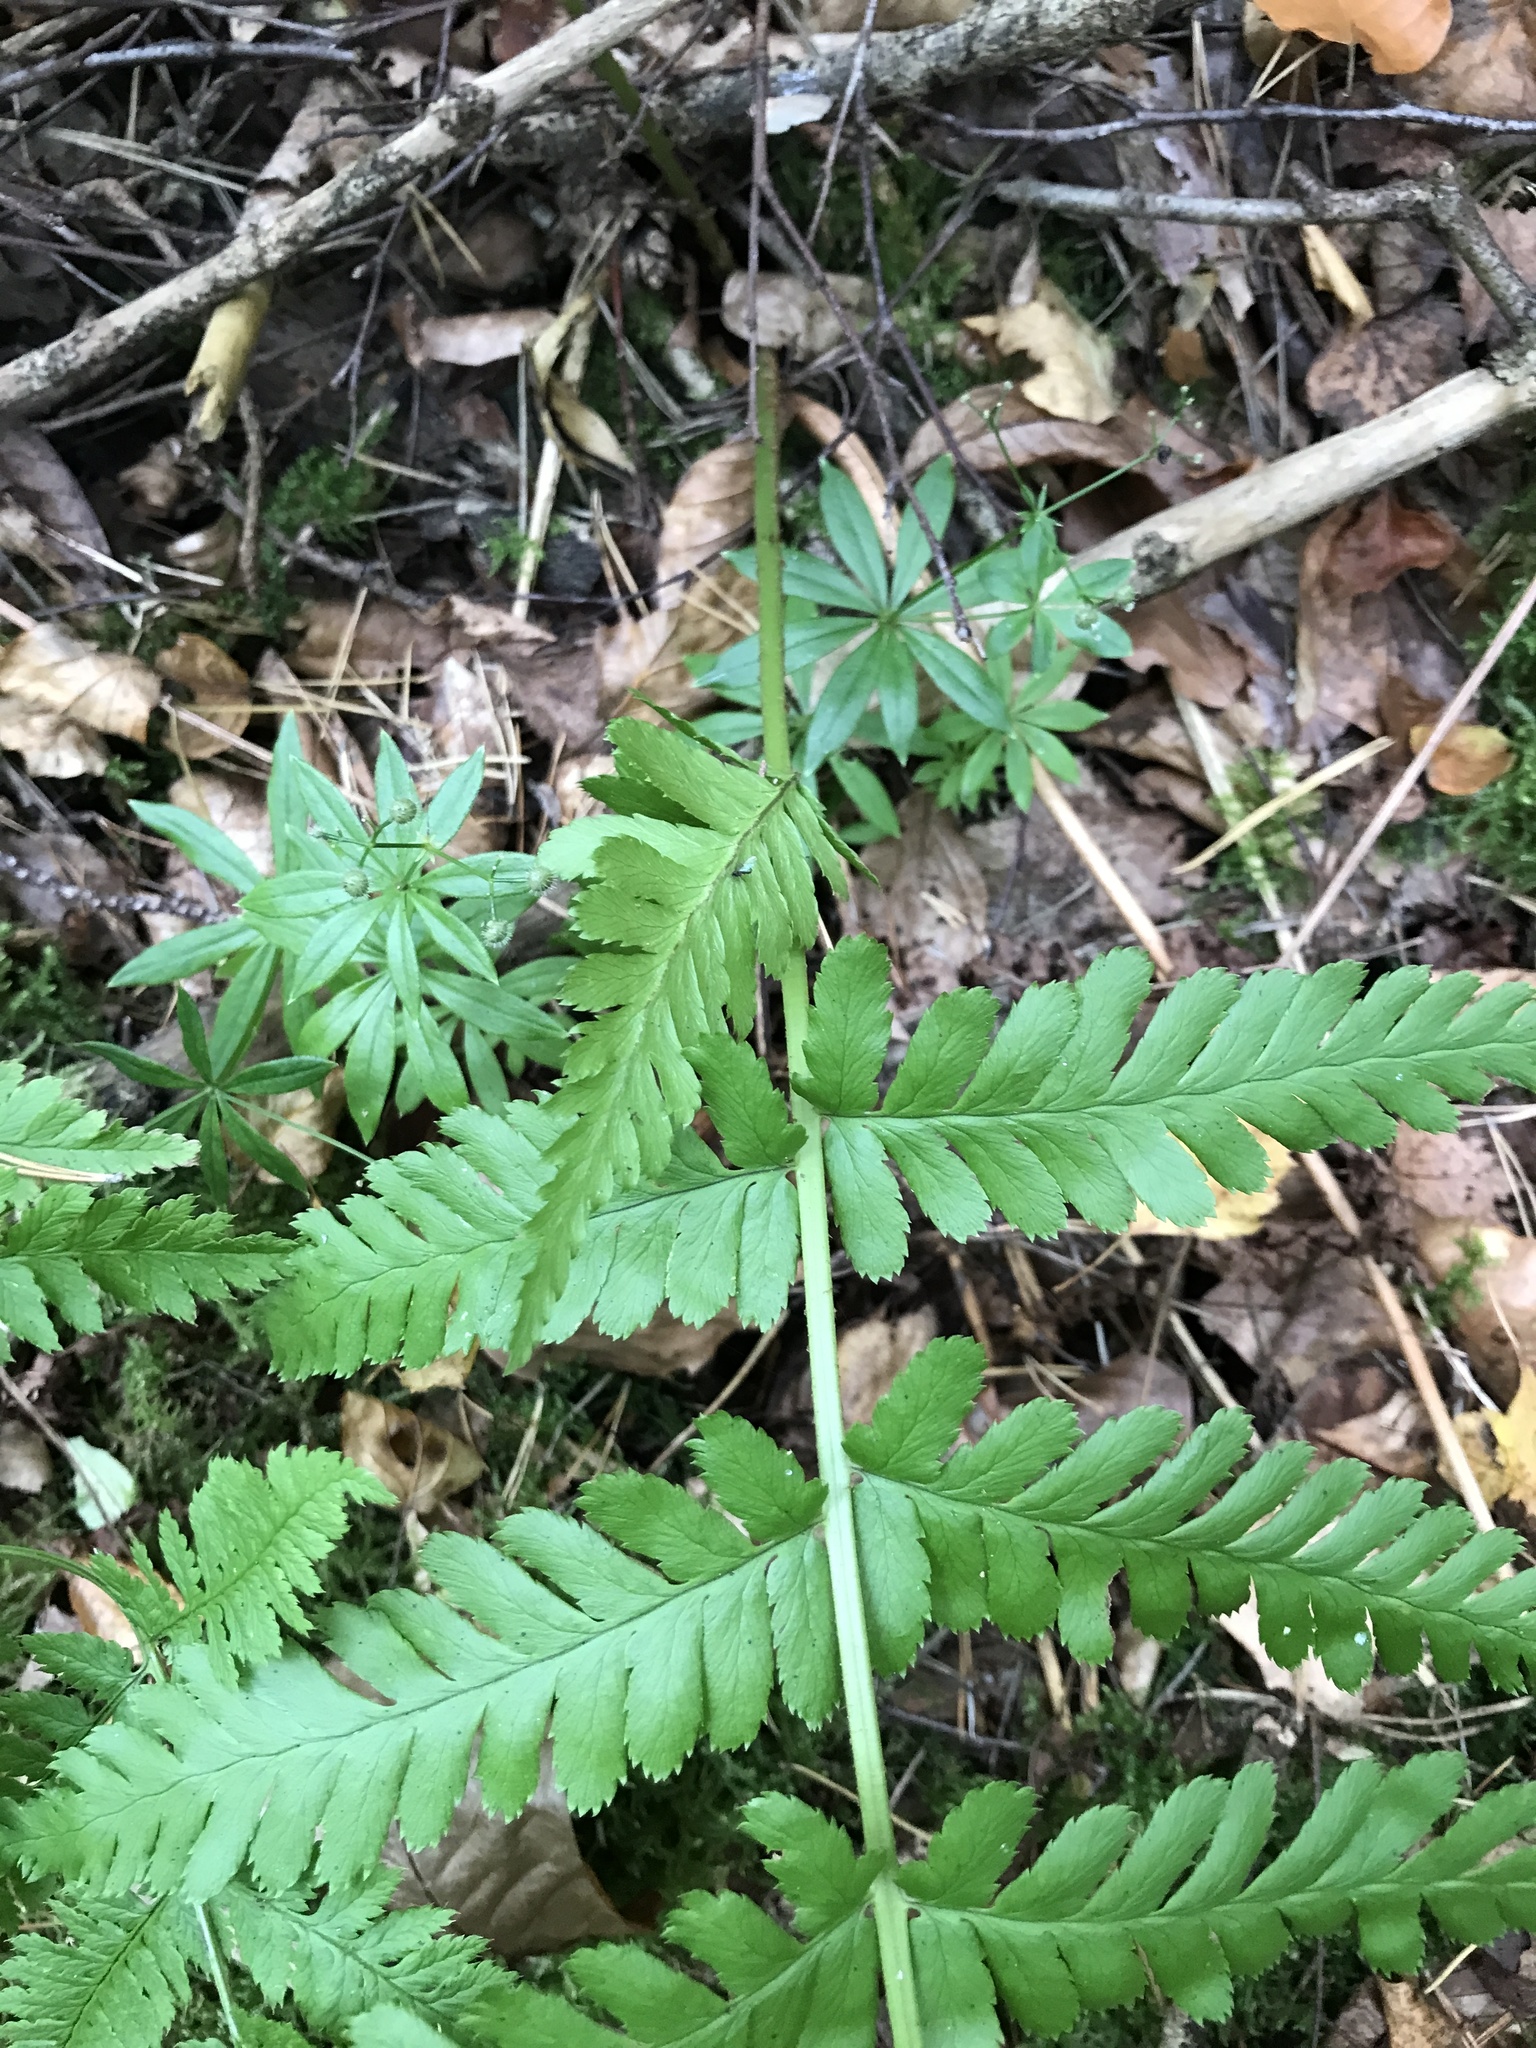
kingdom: Plantae
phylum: Tracheophyta
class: Polypodiopsida
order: Polypodiales
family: Dryopteridaceae
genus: Dryopteris
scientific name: Dryopteris filix-mas
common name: Male fern
